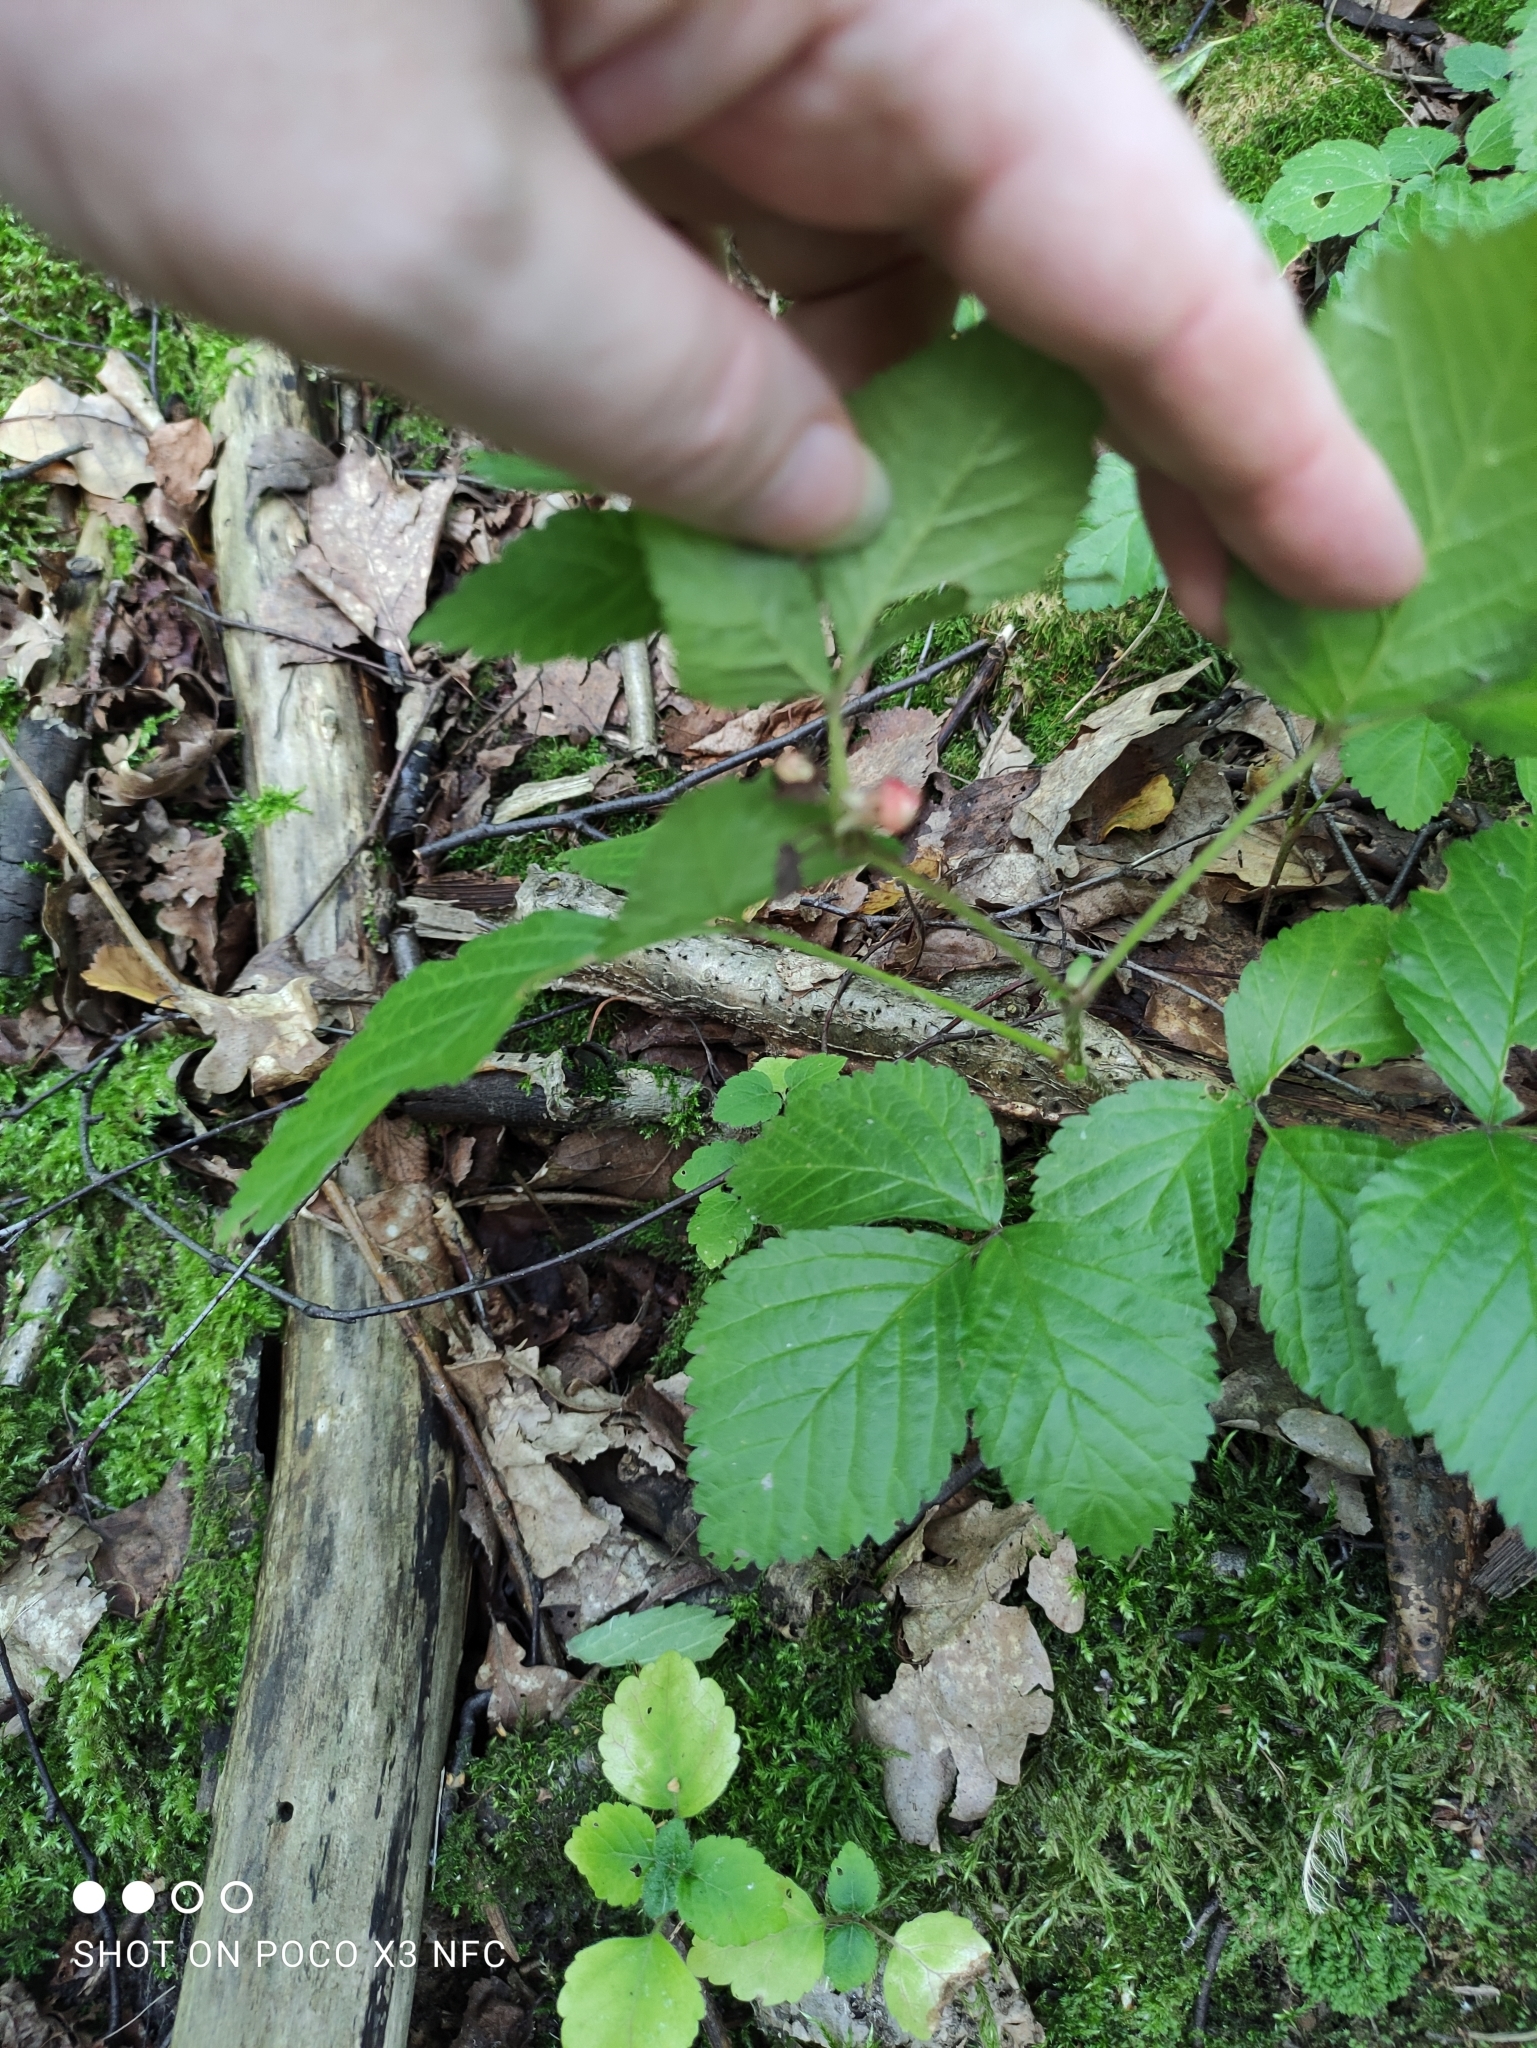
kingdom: Plantae
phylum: Tracheophyta
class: Magnoliopsida
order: Rosales
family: Rosaceae
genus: Rubus
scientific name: Rubus saxatilis
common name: Stone bramble
